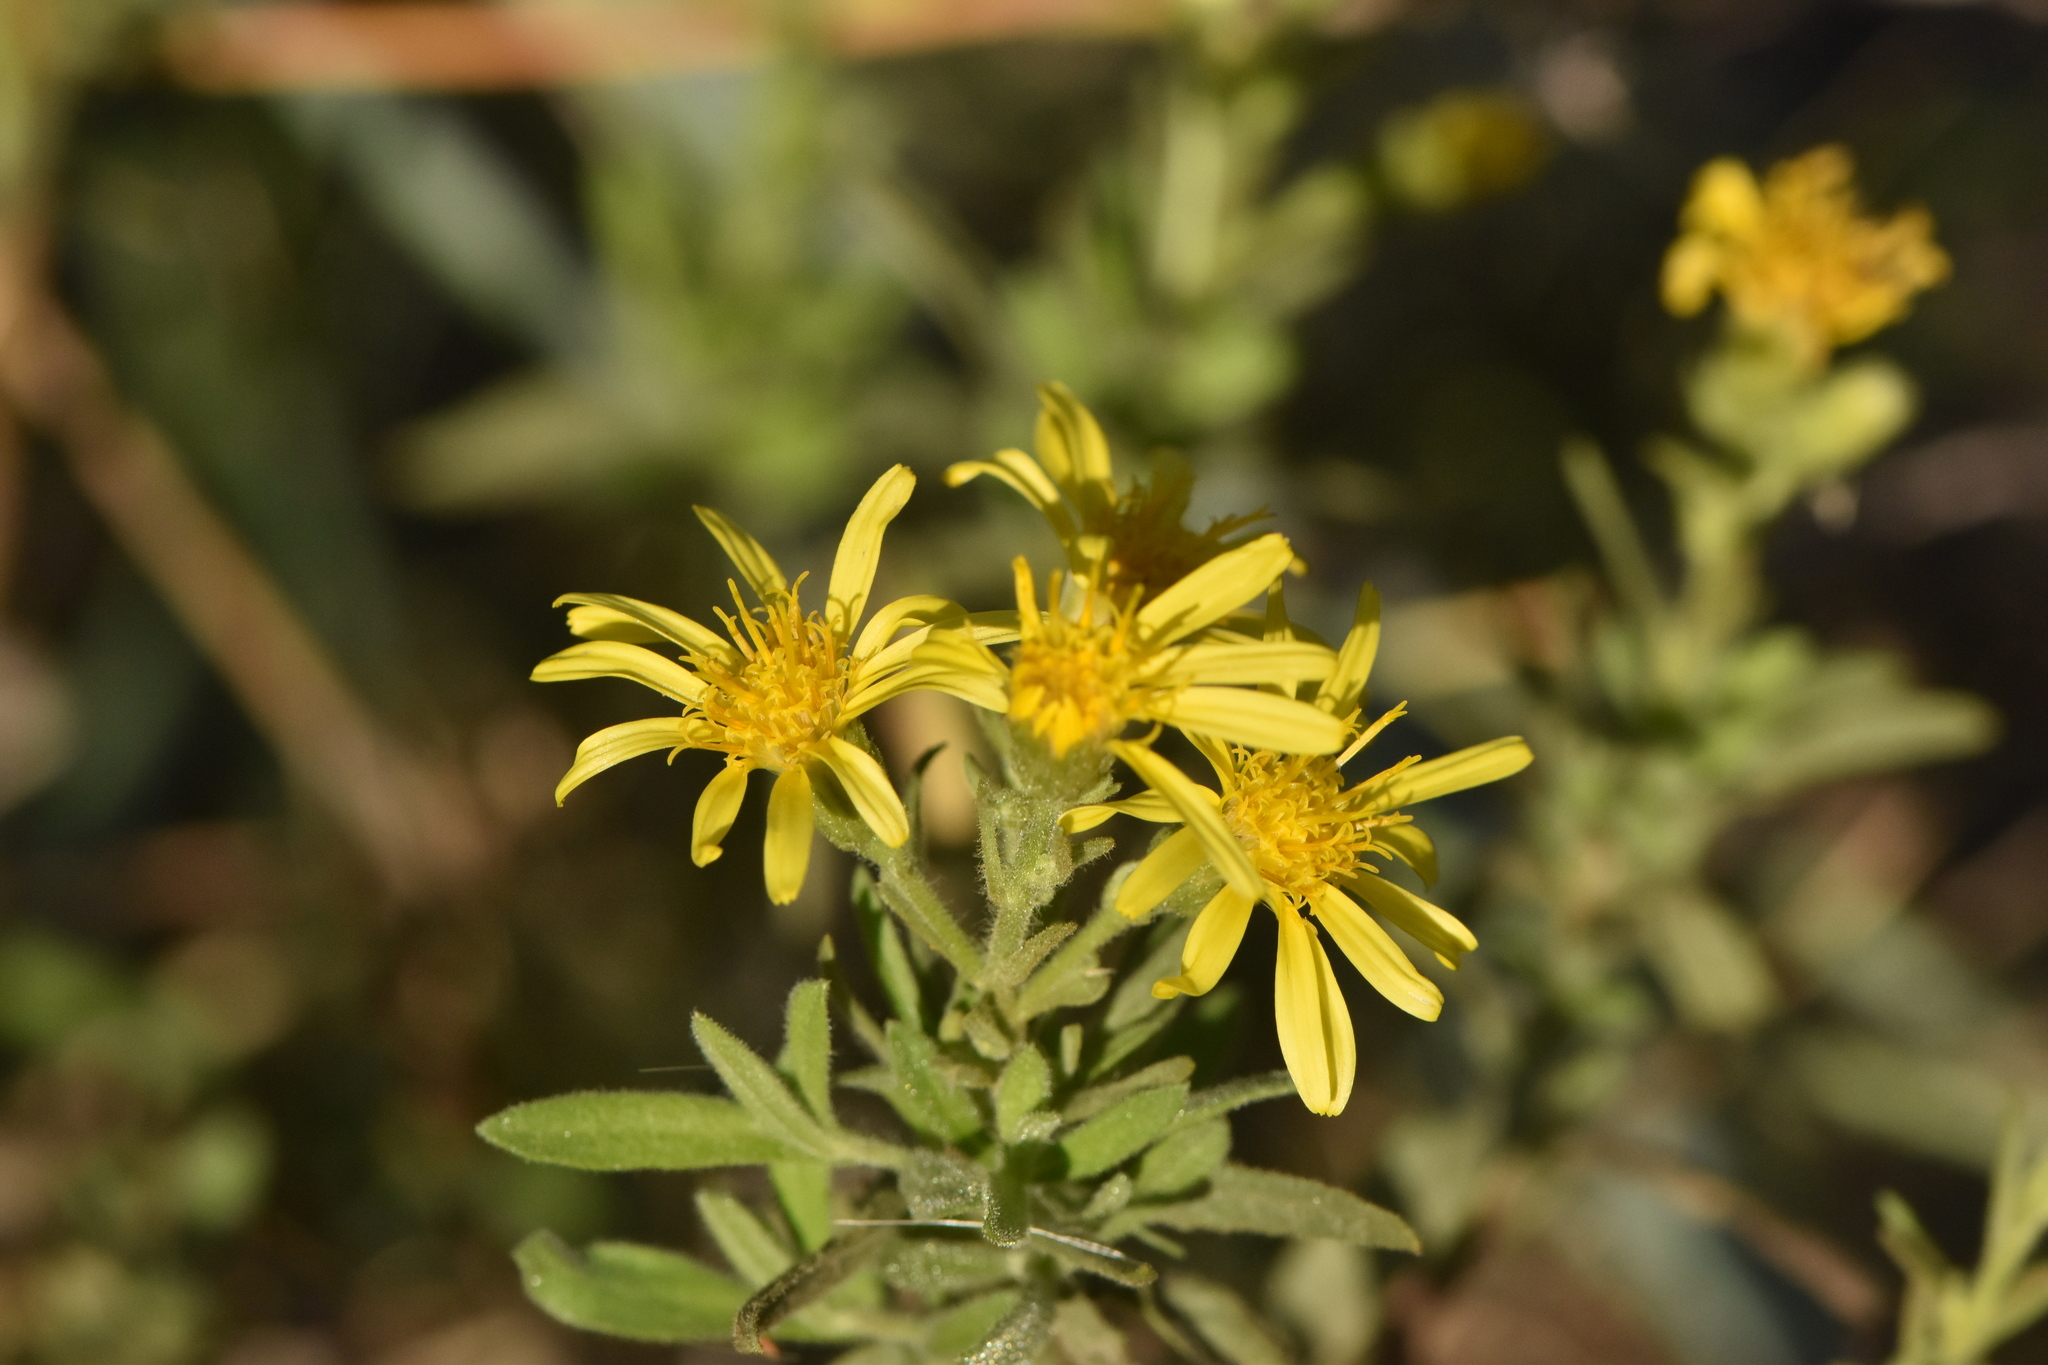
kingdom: Plantae
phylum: Tracheophyta
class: Magnoliopsida
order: Asterales
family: Asteraceae
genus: Dittrichia
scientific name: Dittrichia viscosa
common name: Woody fleabane
